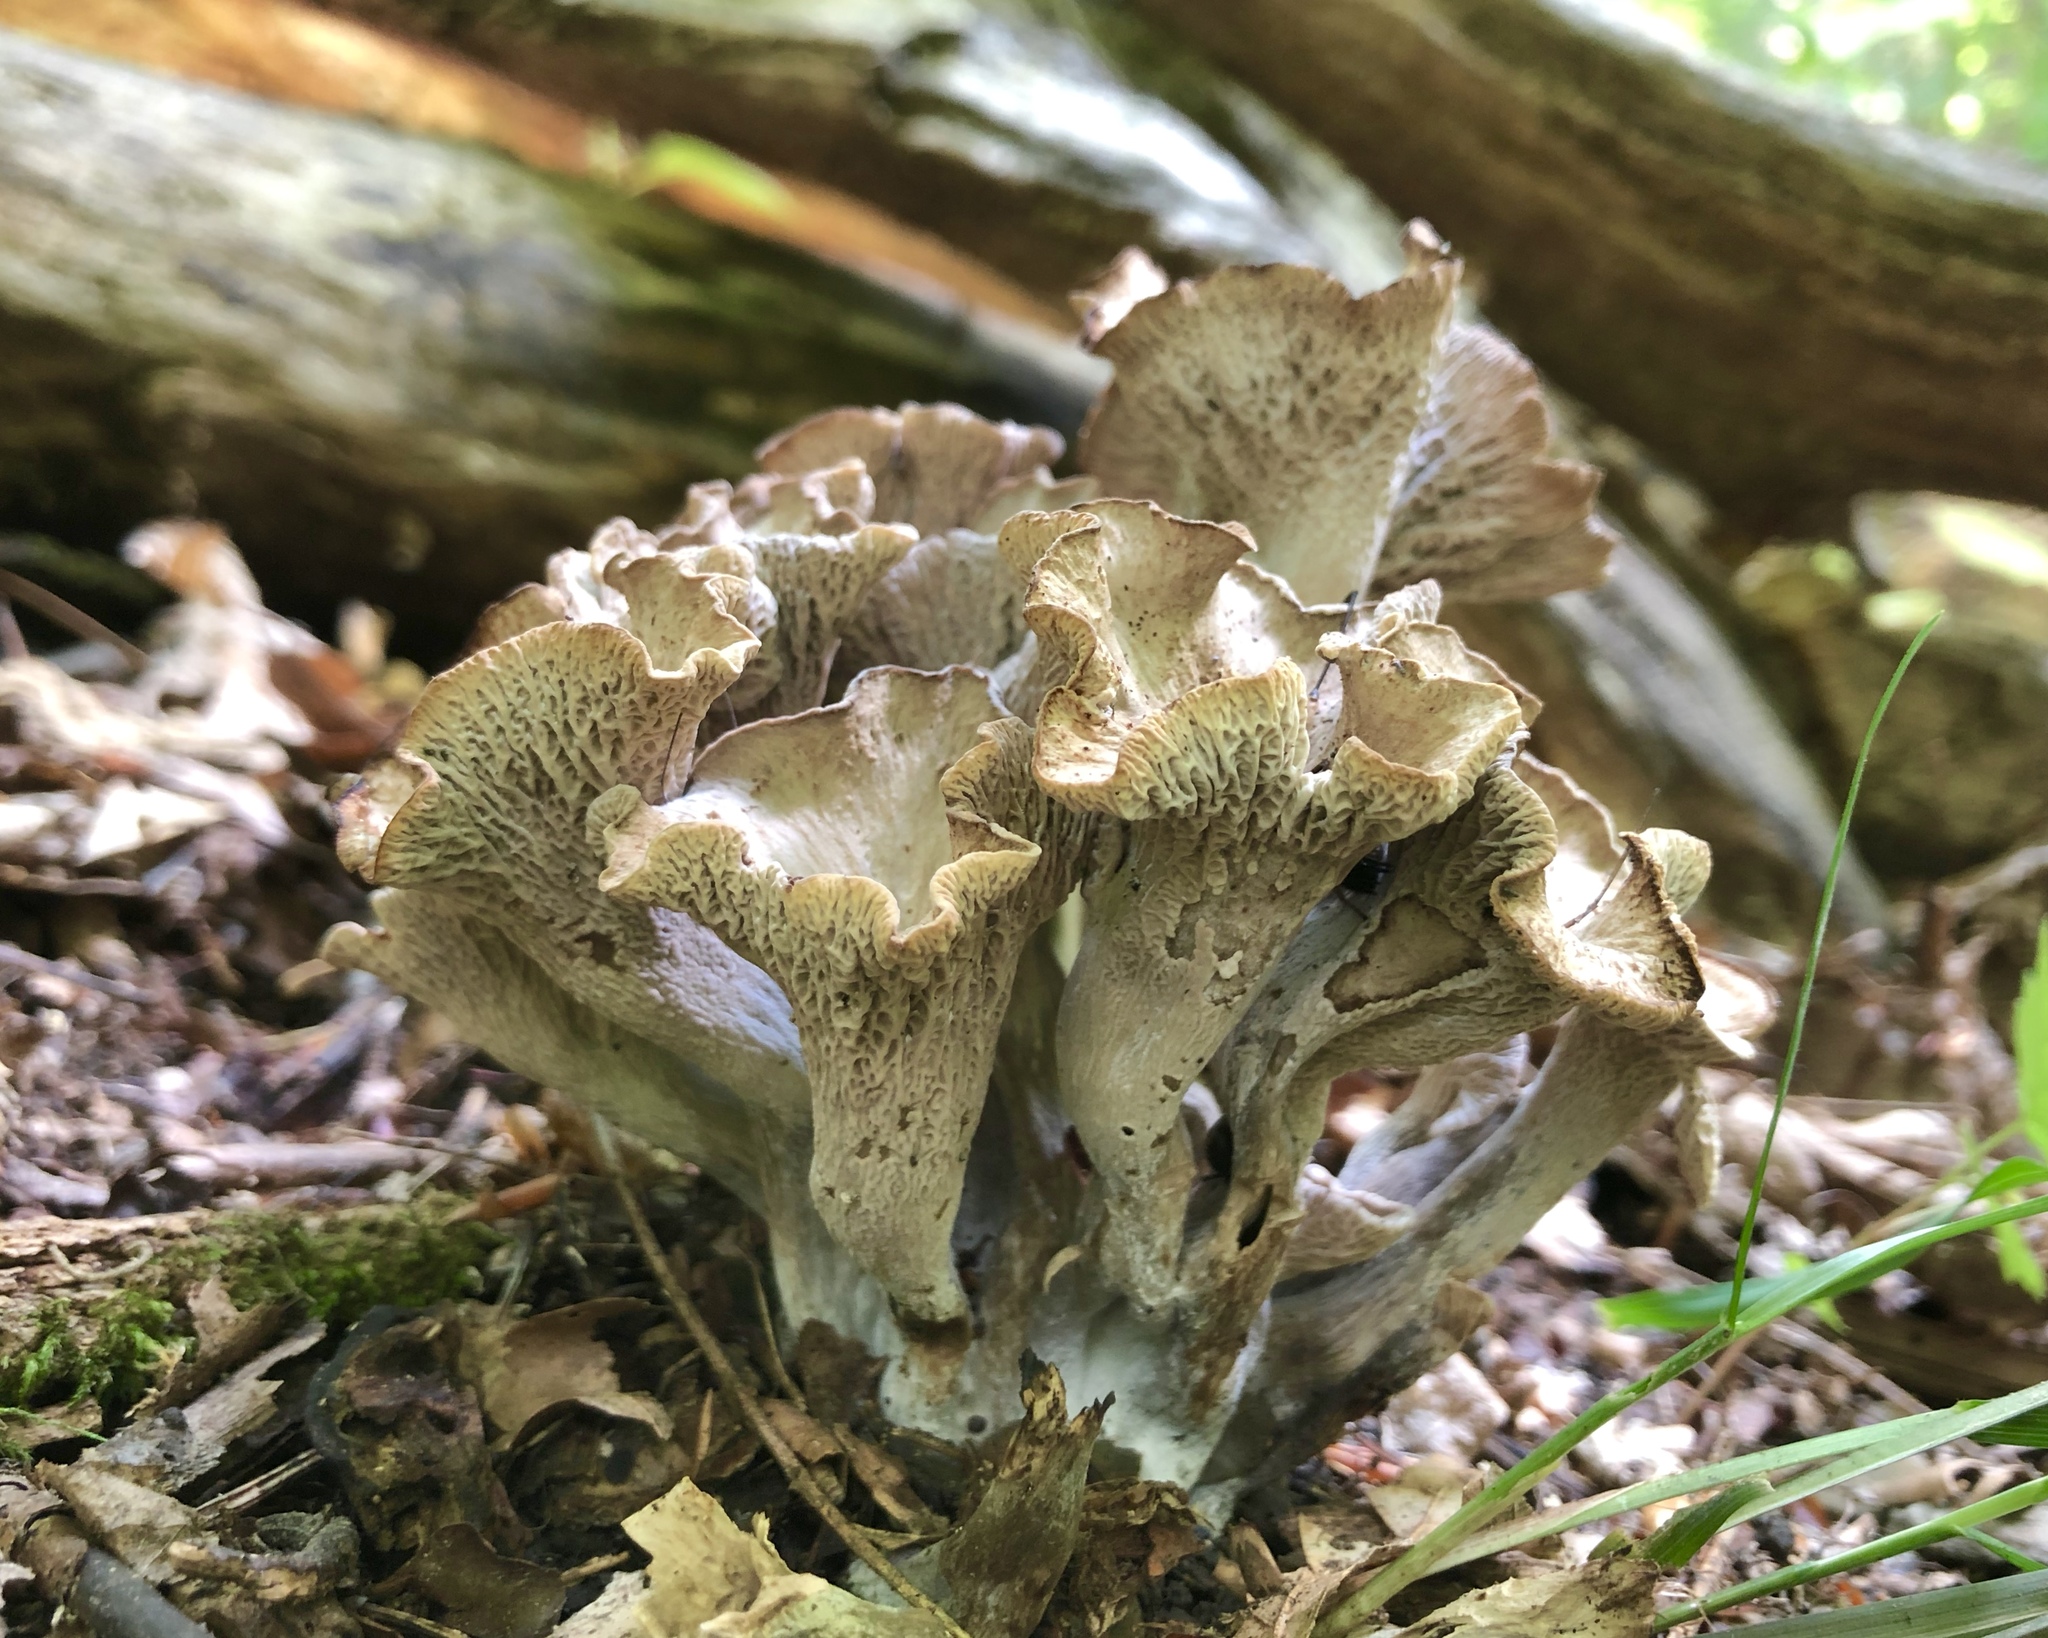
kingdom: Fungi
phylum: Basidiomycota
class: Agaricomycetes
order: Cantharellales
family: Hydnaceae
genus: Craterellus
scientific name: Craterellus foetidus
